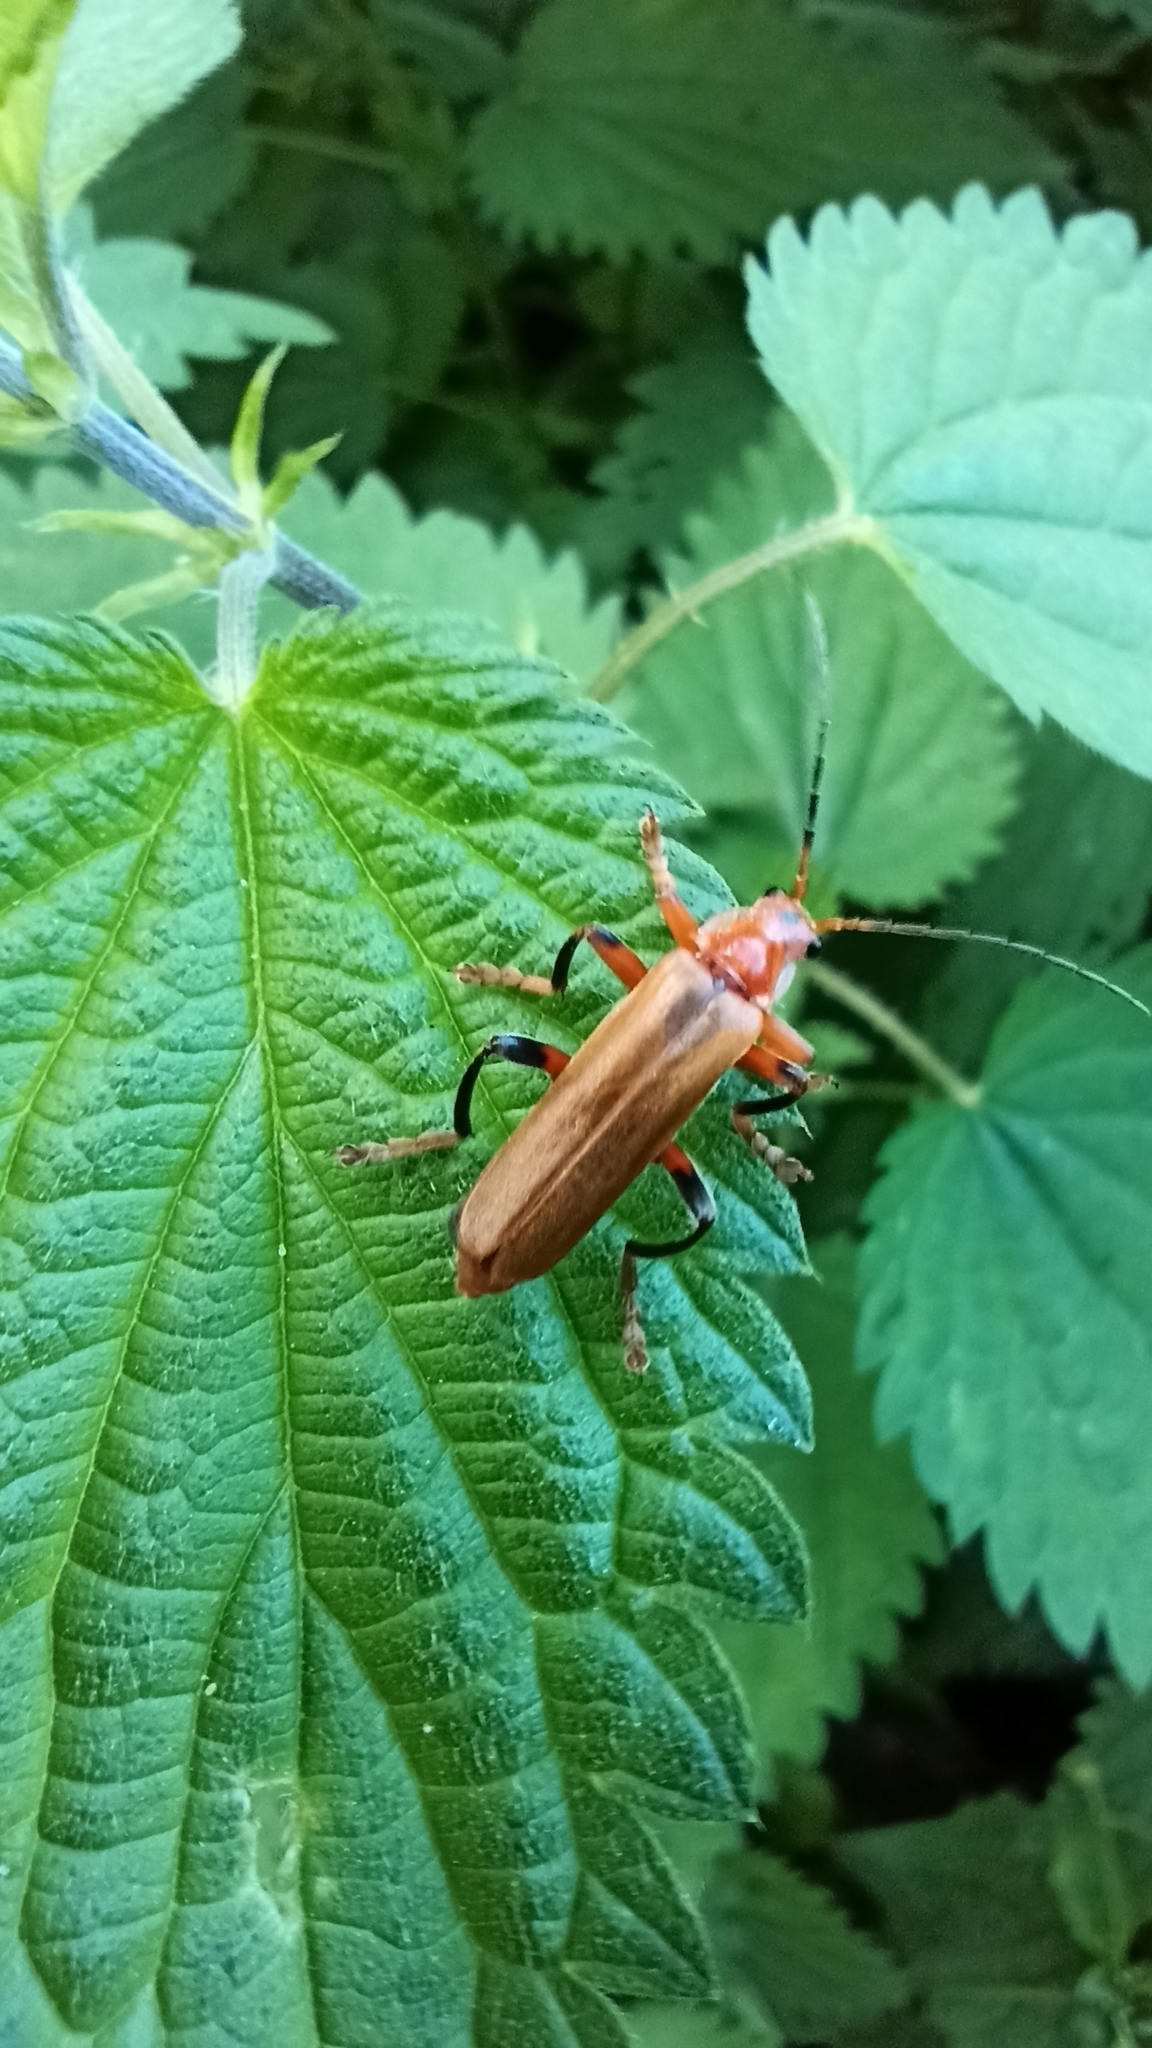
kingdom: Animalia
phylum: Arthropoda
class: Insecta
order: Coleoptera
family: Cantharidae
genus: Cantharis
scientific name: Cantharis livida
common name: Livid soldier beetle
